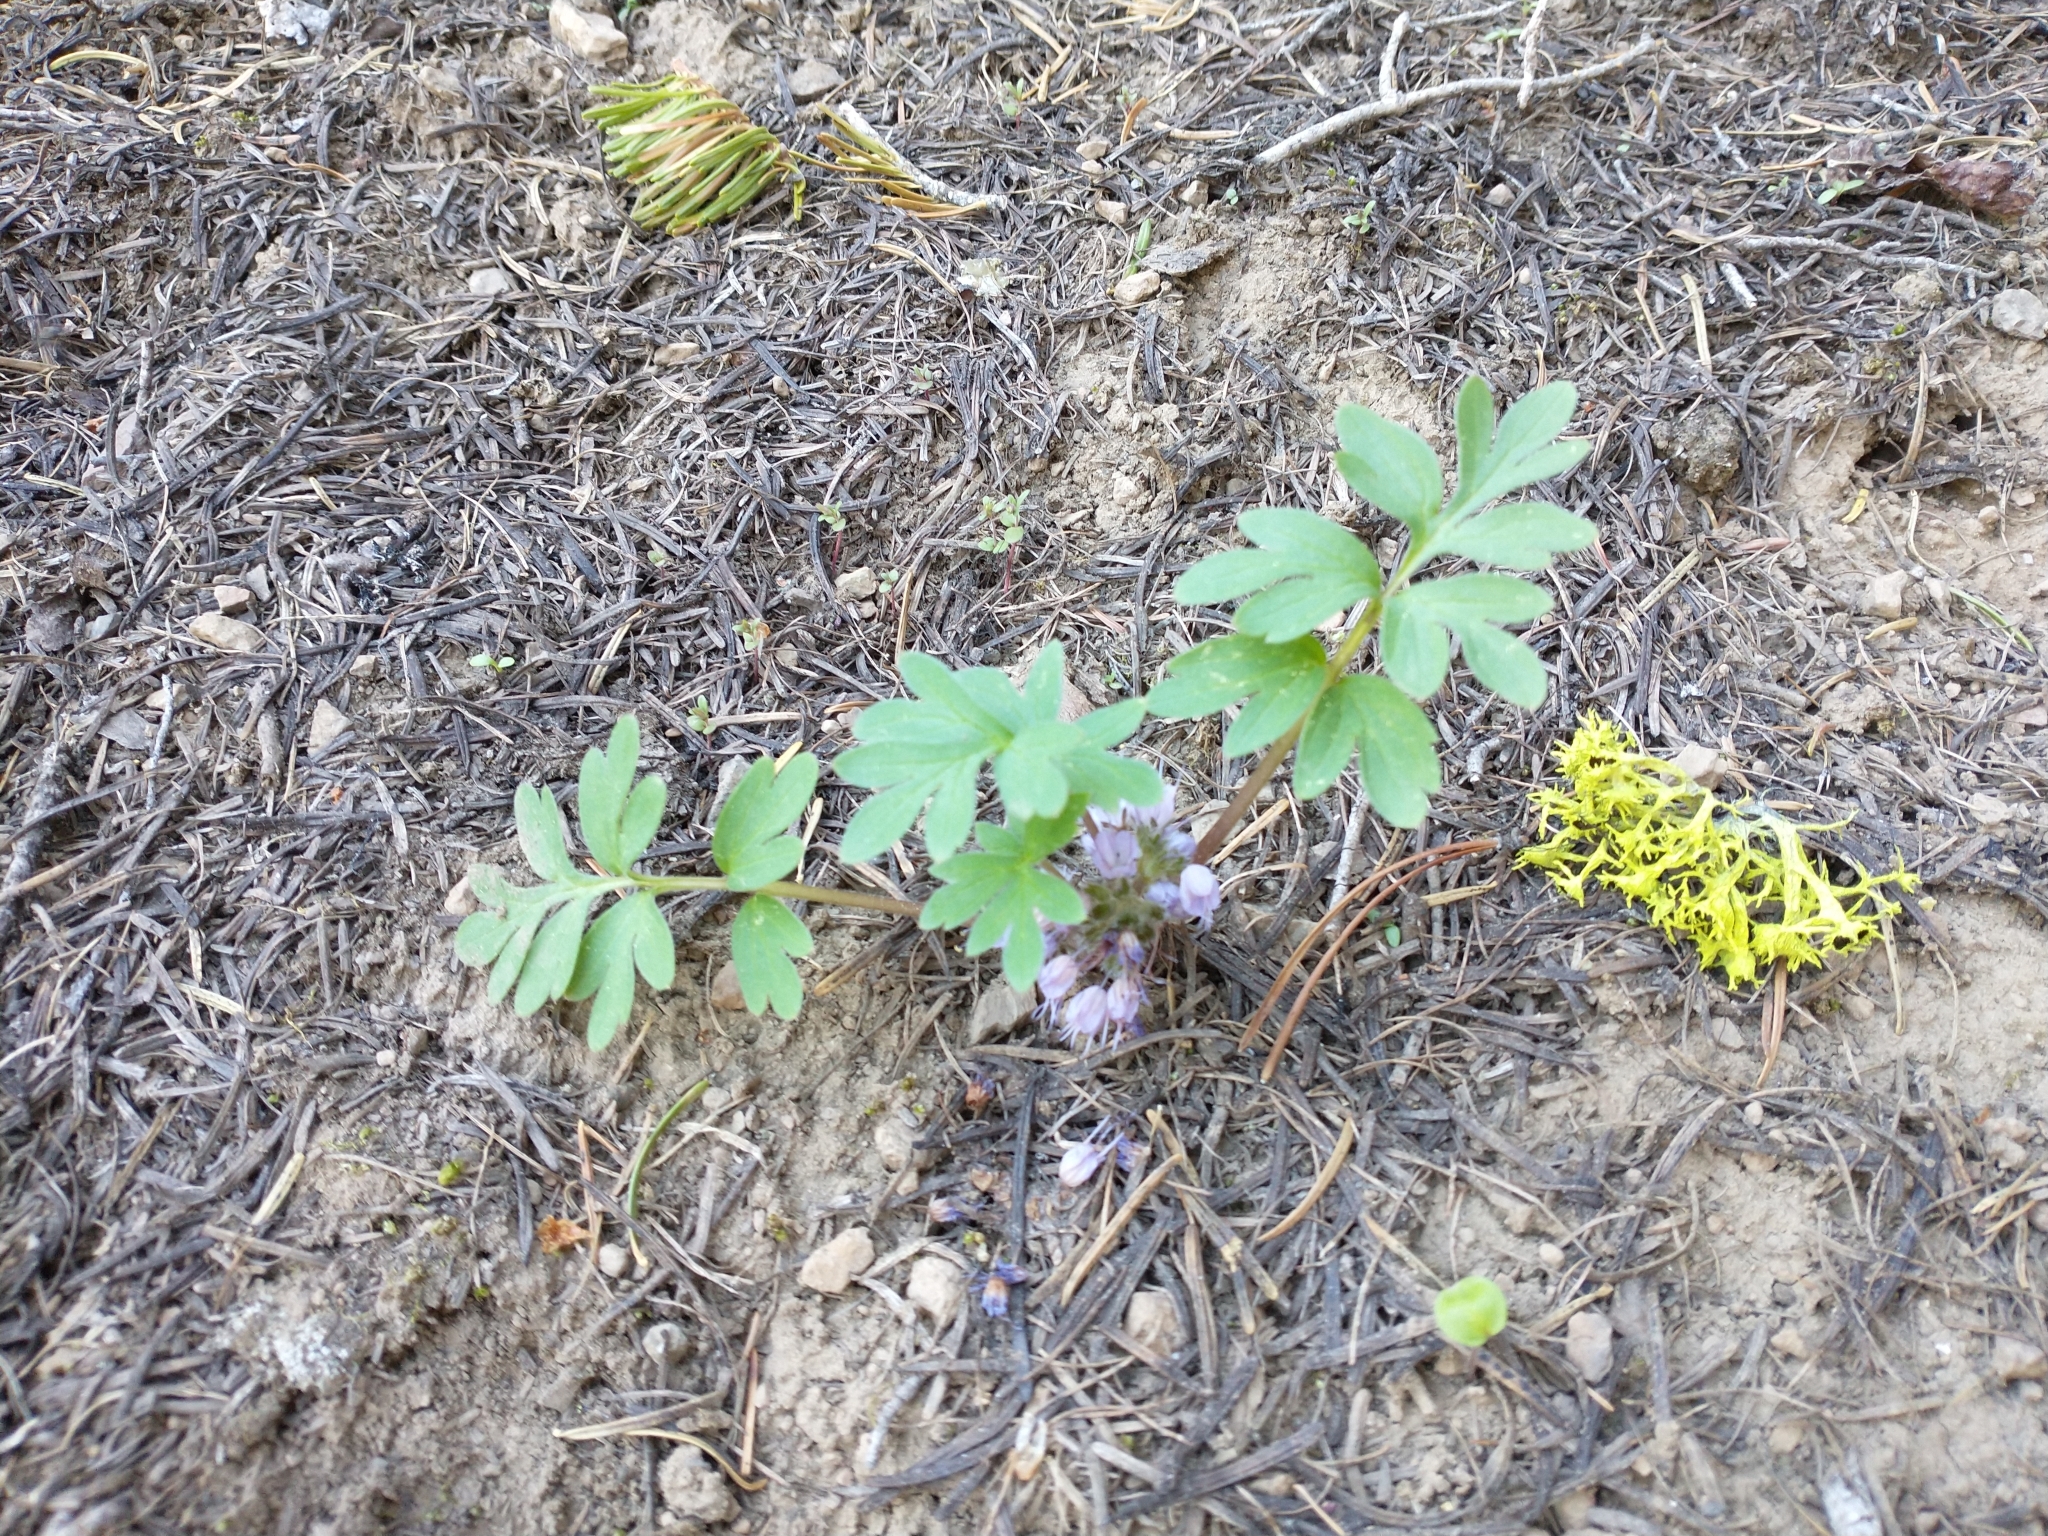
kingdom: Plantae
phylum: Tracheophyta
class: Magnoliopsida
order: Boraginales
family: Hydrophyllaceae
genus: Hydrophyllum
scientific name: Hydrophyllum alpestre
